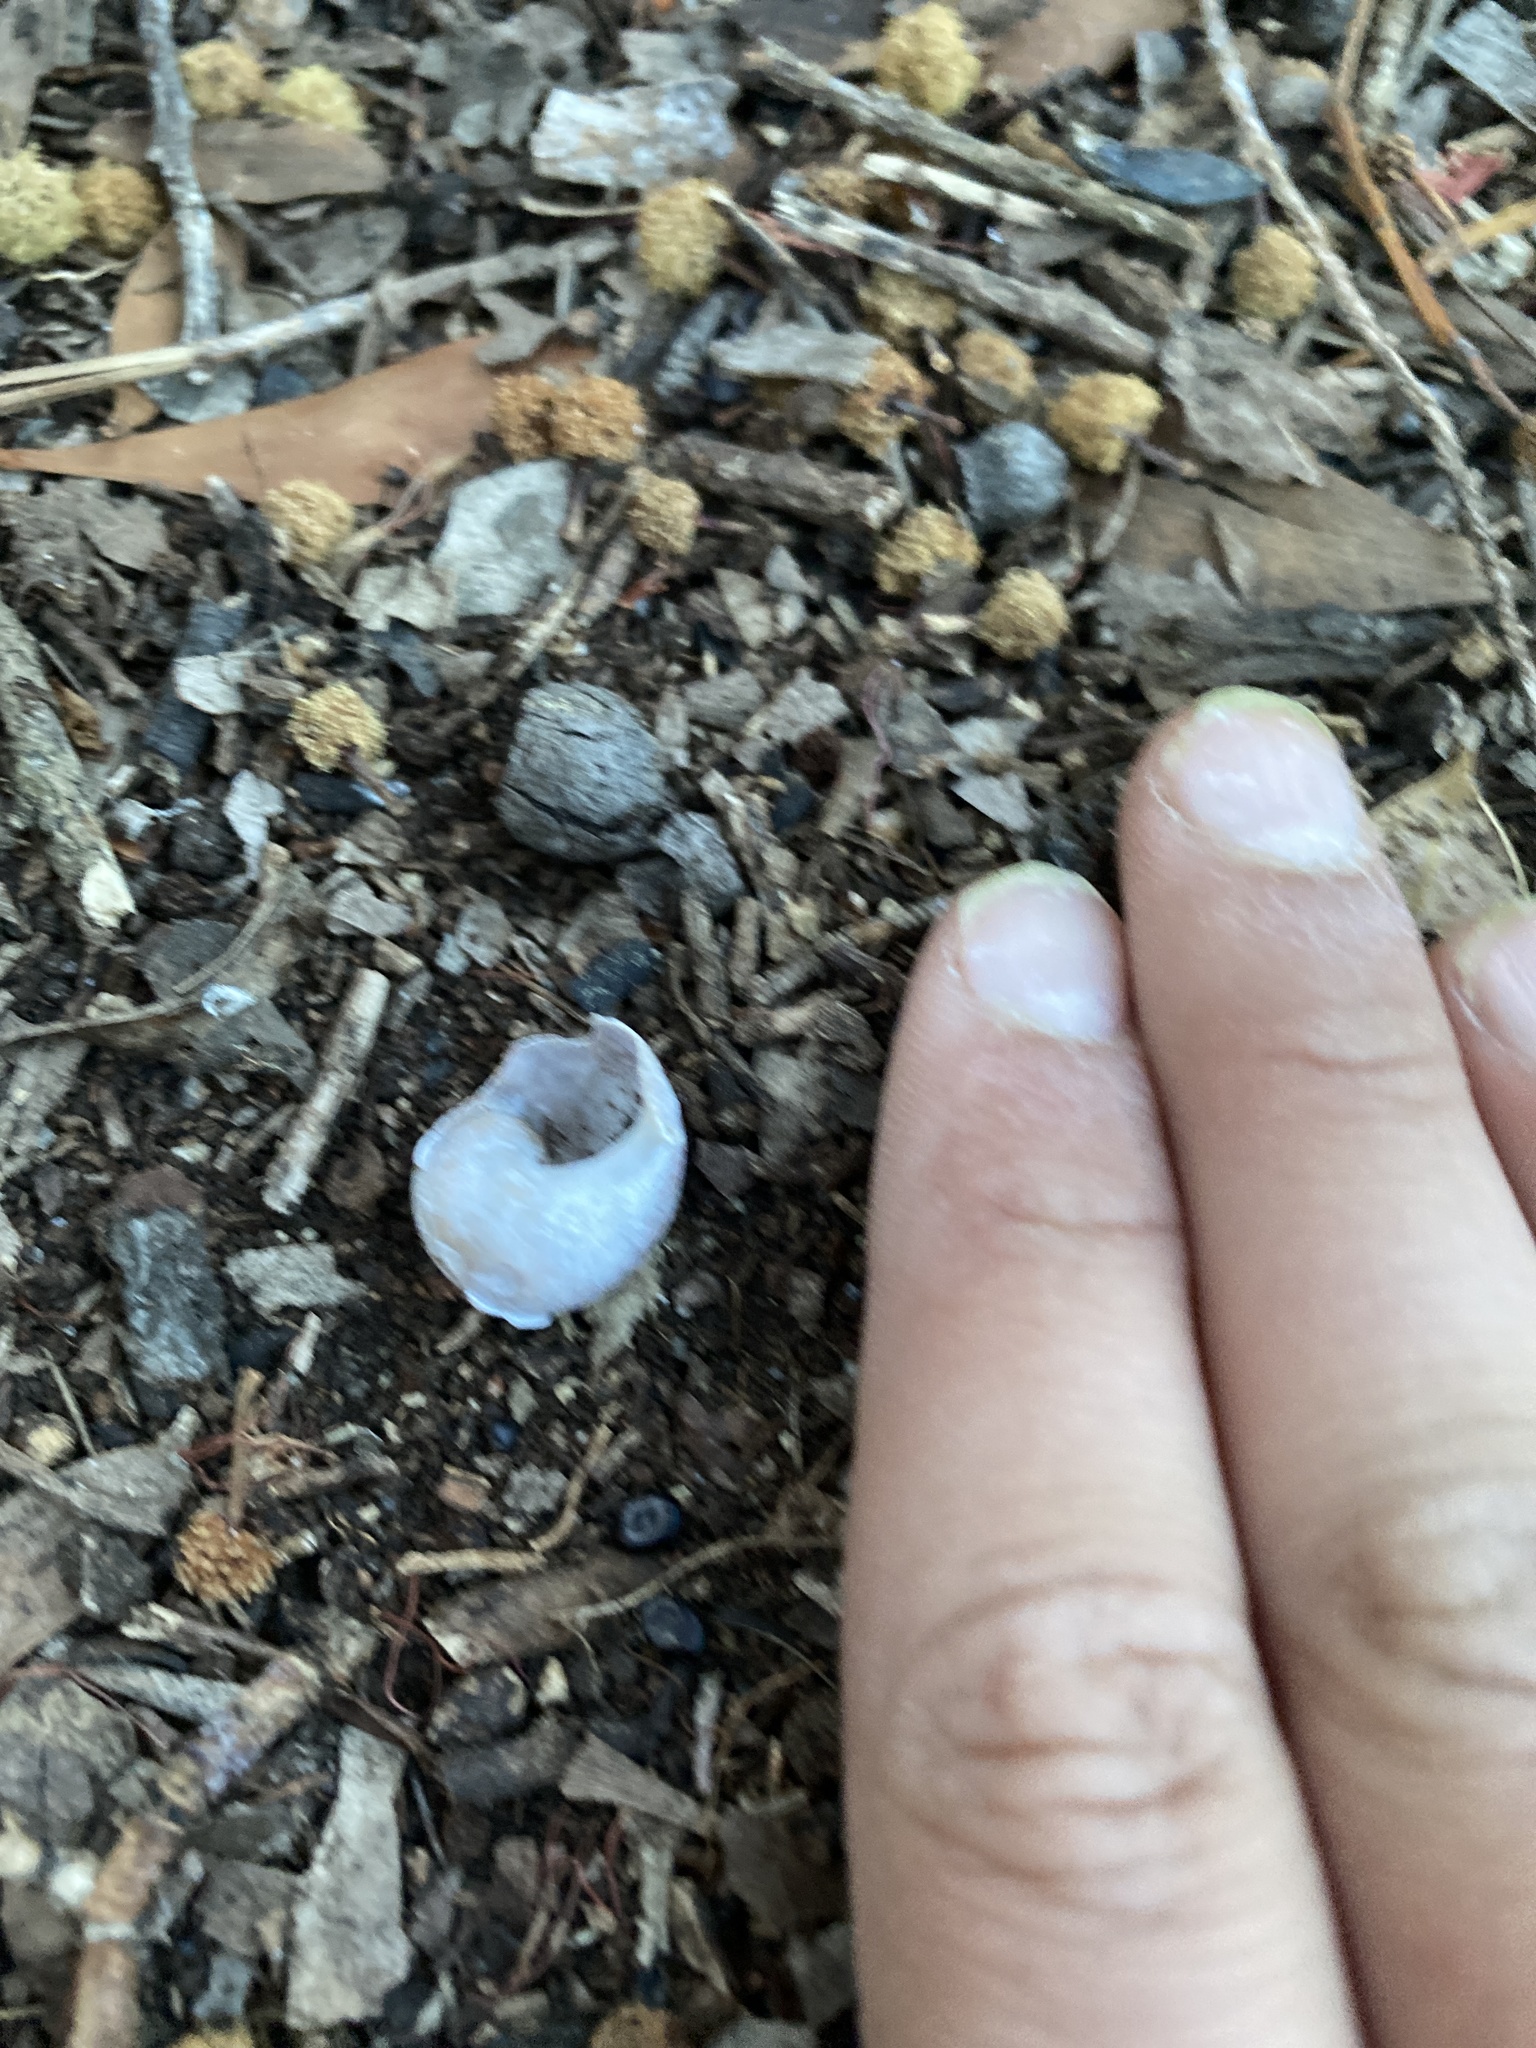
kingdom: Animalia
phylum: Mollusca
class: Gastropoda
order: Stylommatophora
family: Helicidae
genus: Cornu
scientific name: Cornu aspersum
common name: Brown garden snail
